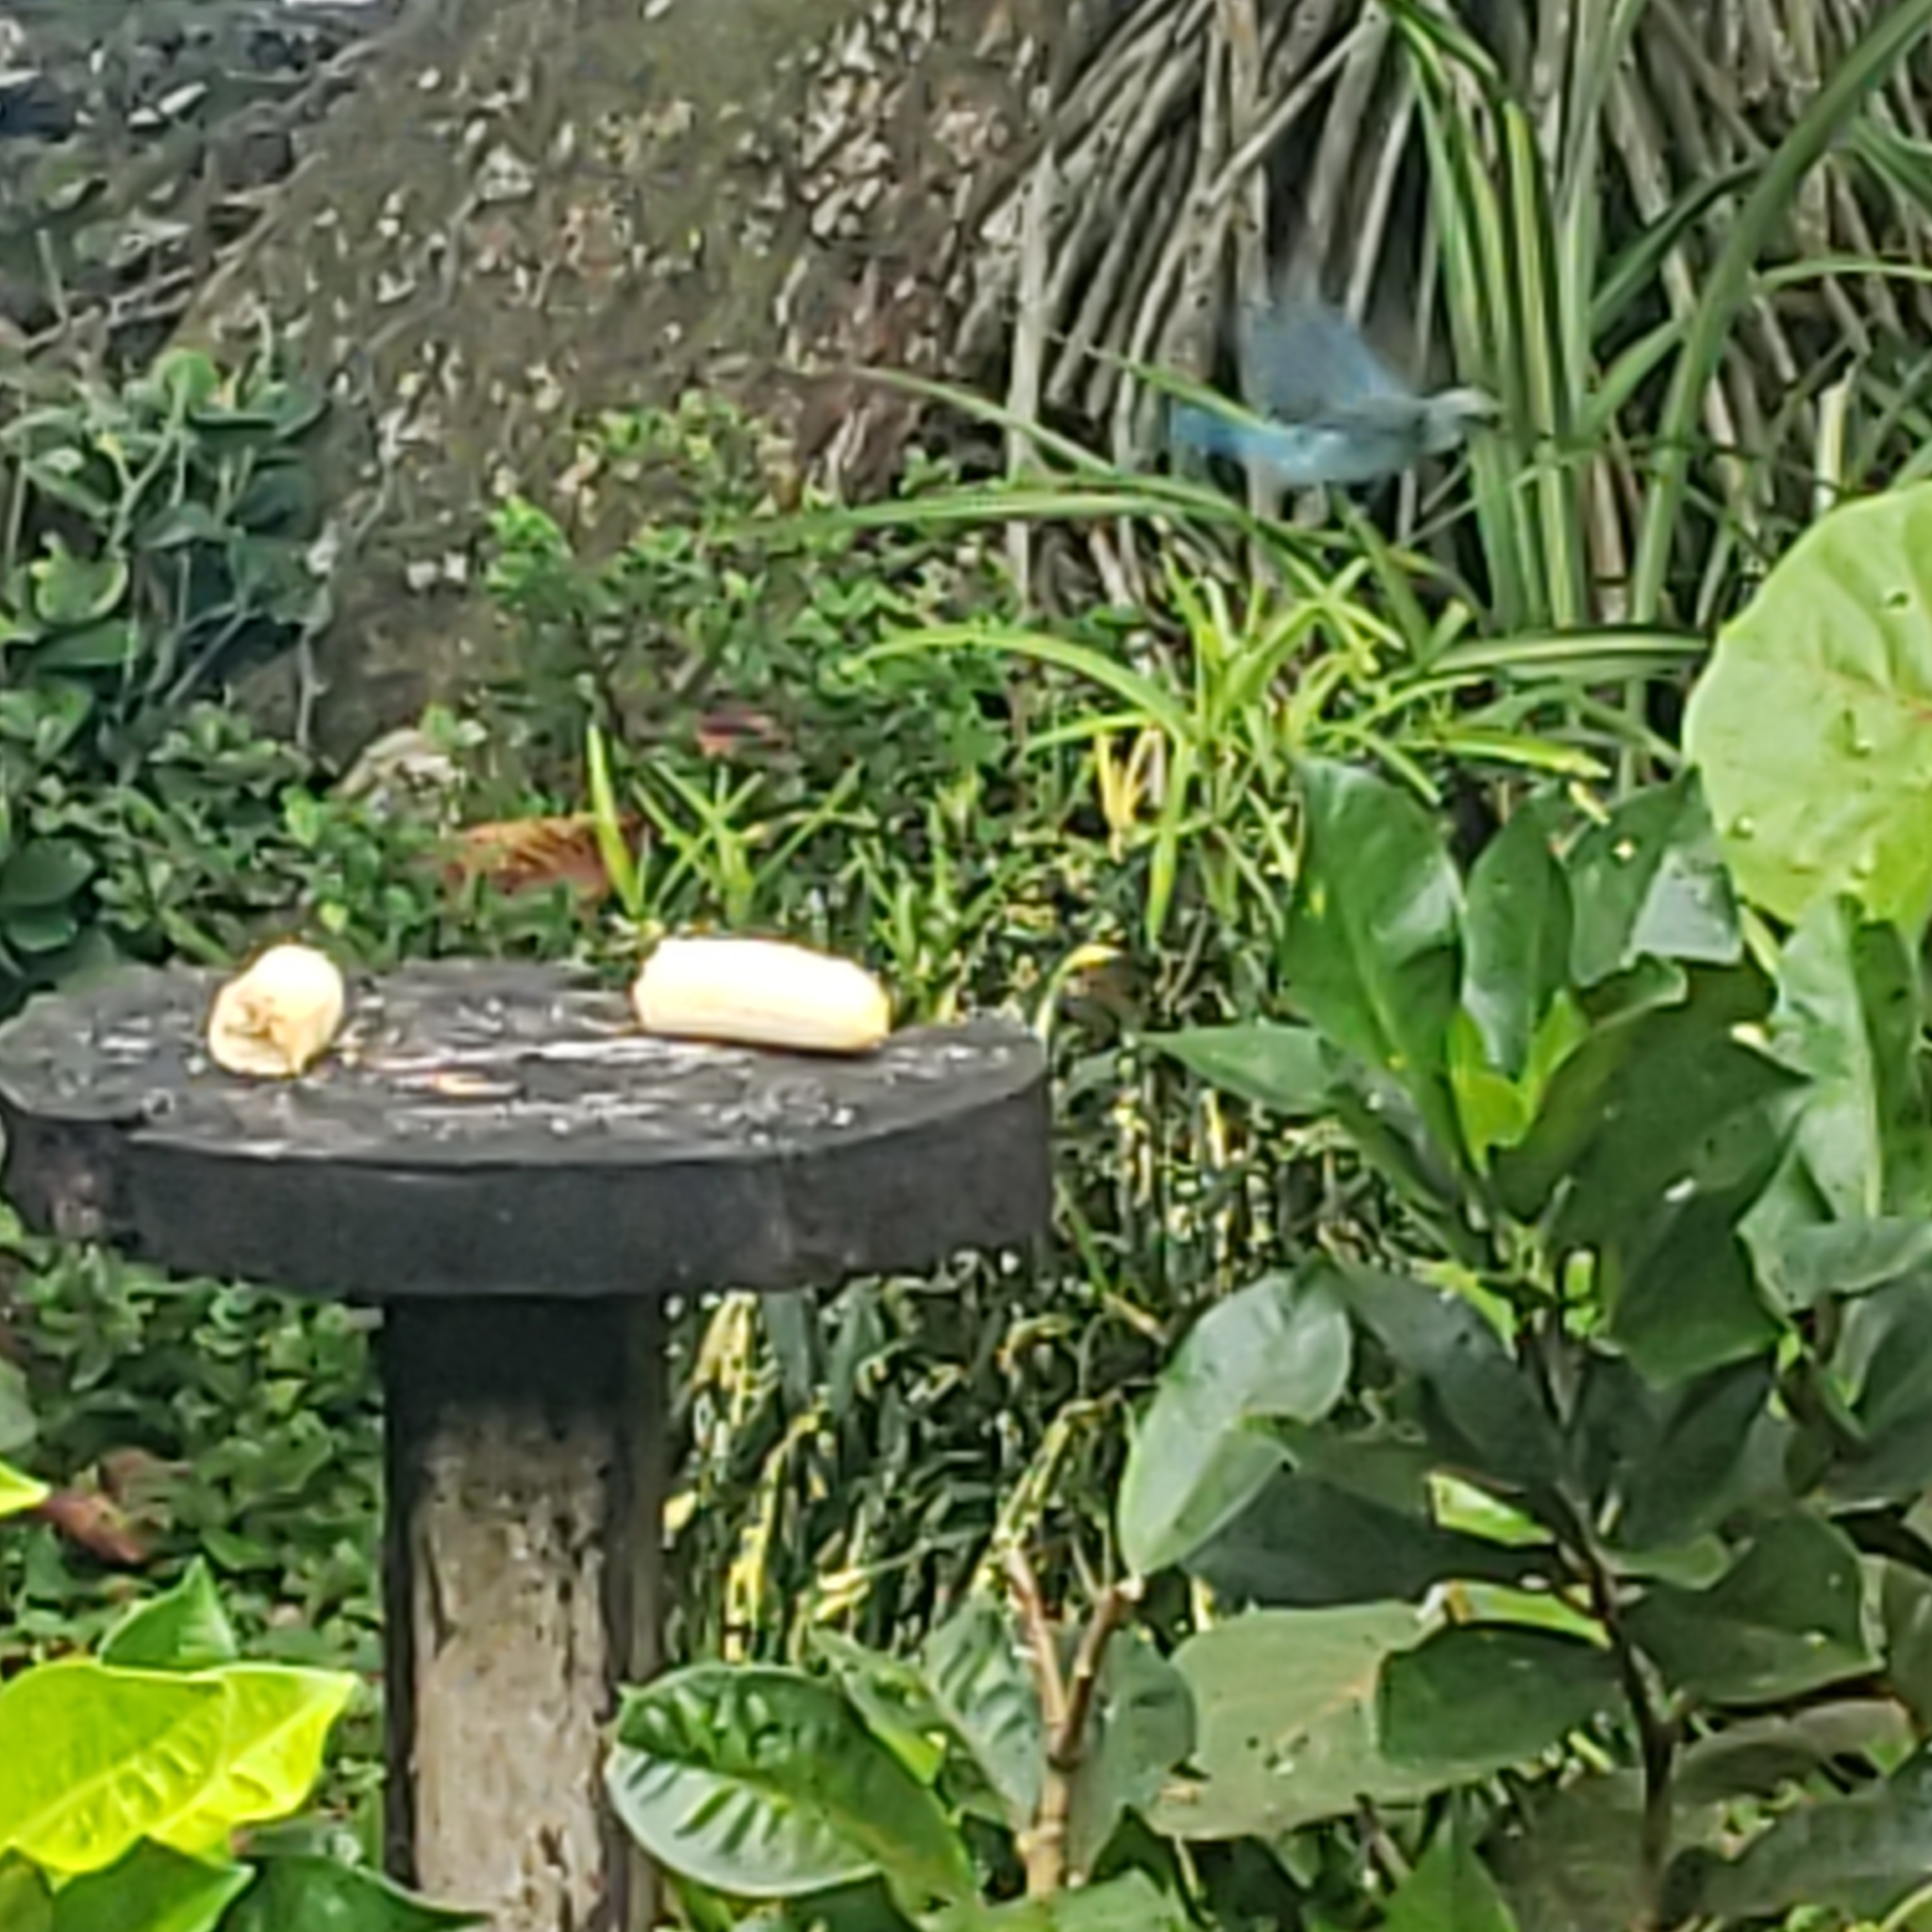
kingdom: Animalia
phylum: Chordata
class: Aves
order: Passeriformes
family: Thraupidae
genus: Thraupis
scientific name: Thraupis episcopus
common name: Blue-grey tanager
